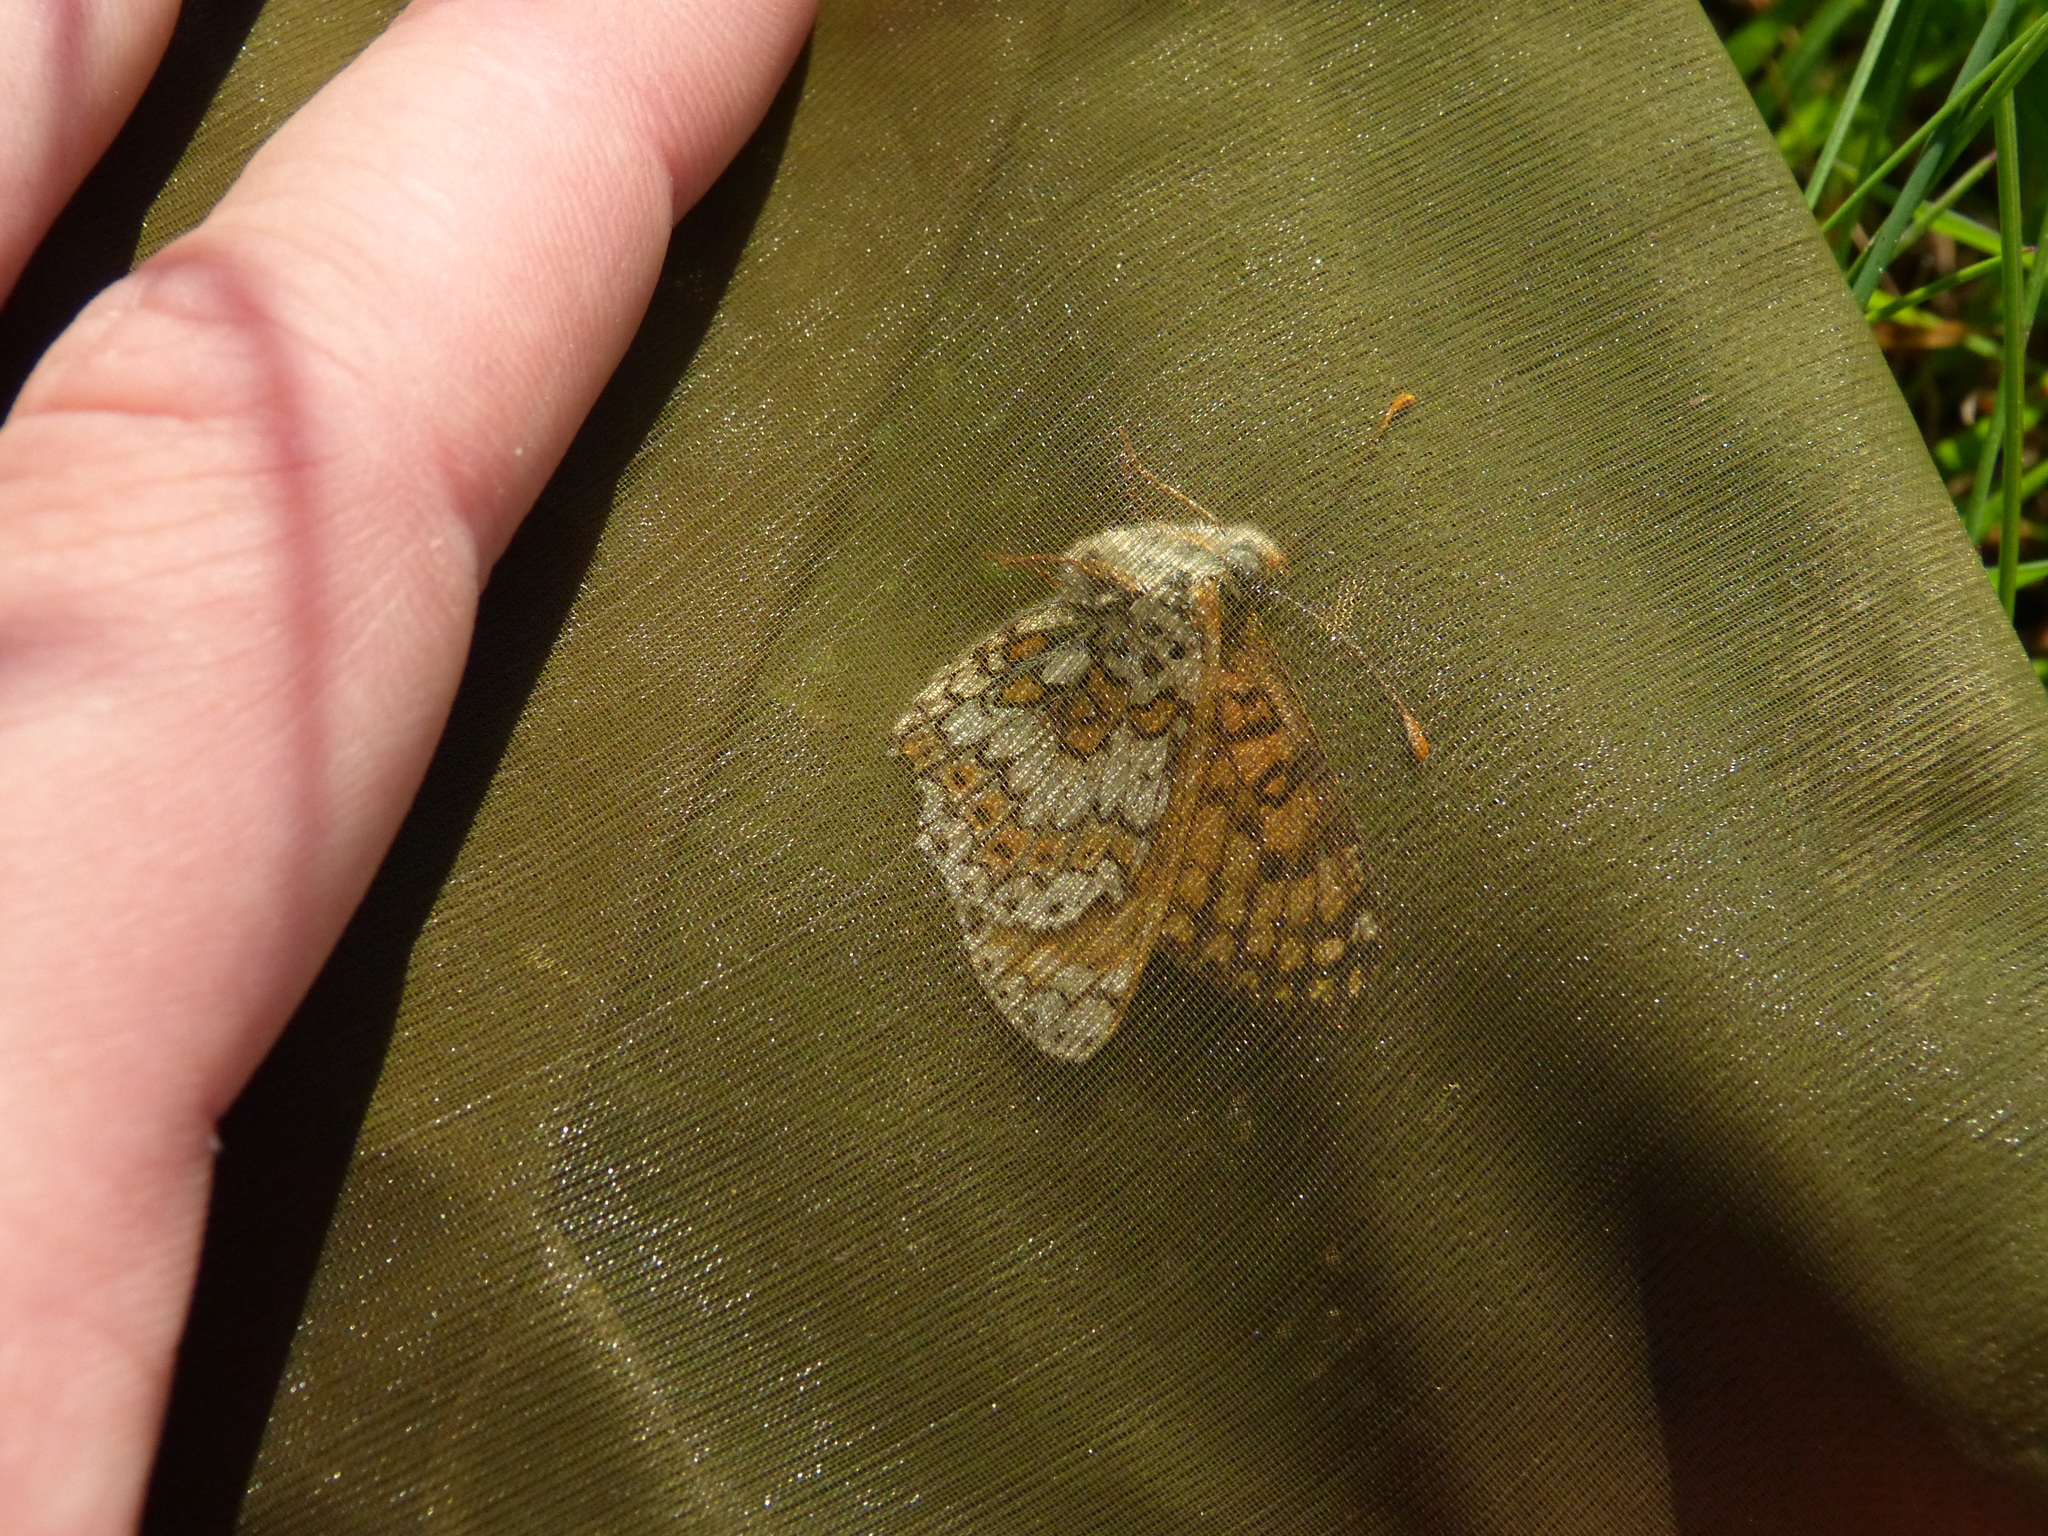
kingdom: Animalia
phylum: Arthropoda
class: Insecta
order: Lepidoptera
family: Nymphalidae
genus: Melitaea
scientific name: Melitaea cinxia
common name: Glanville fritillary
